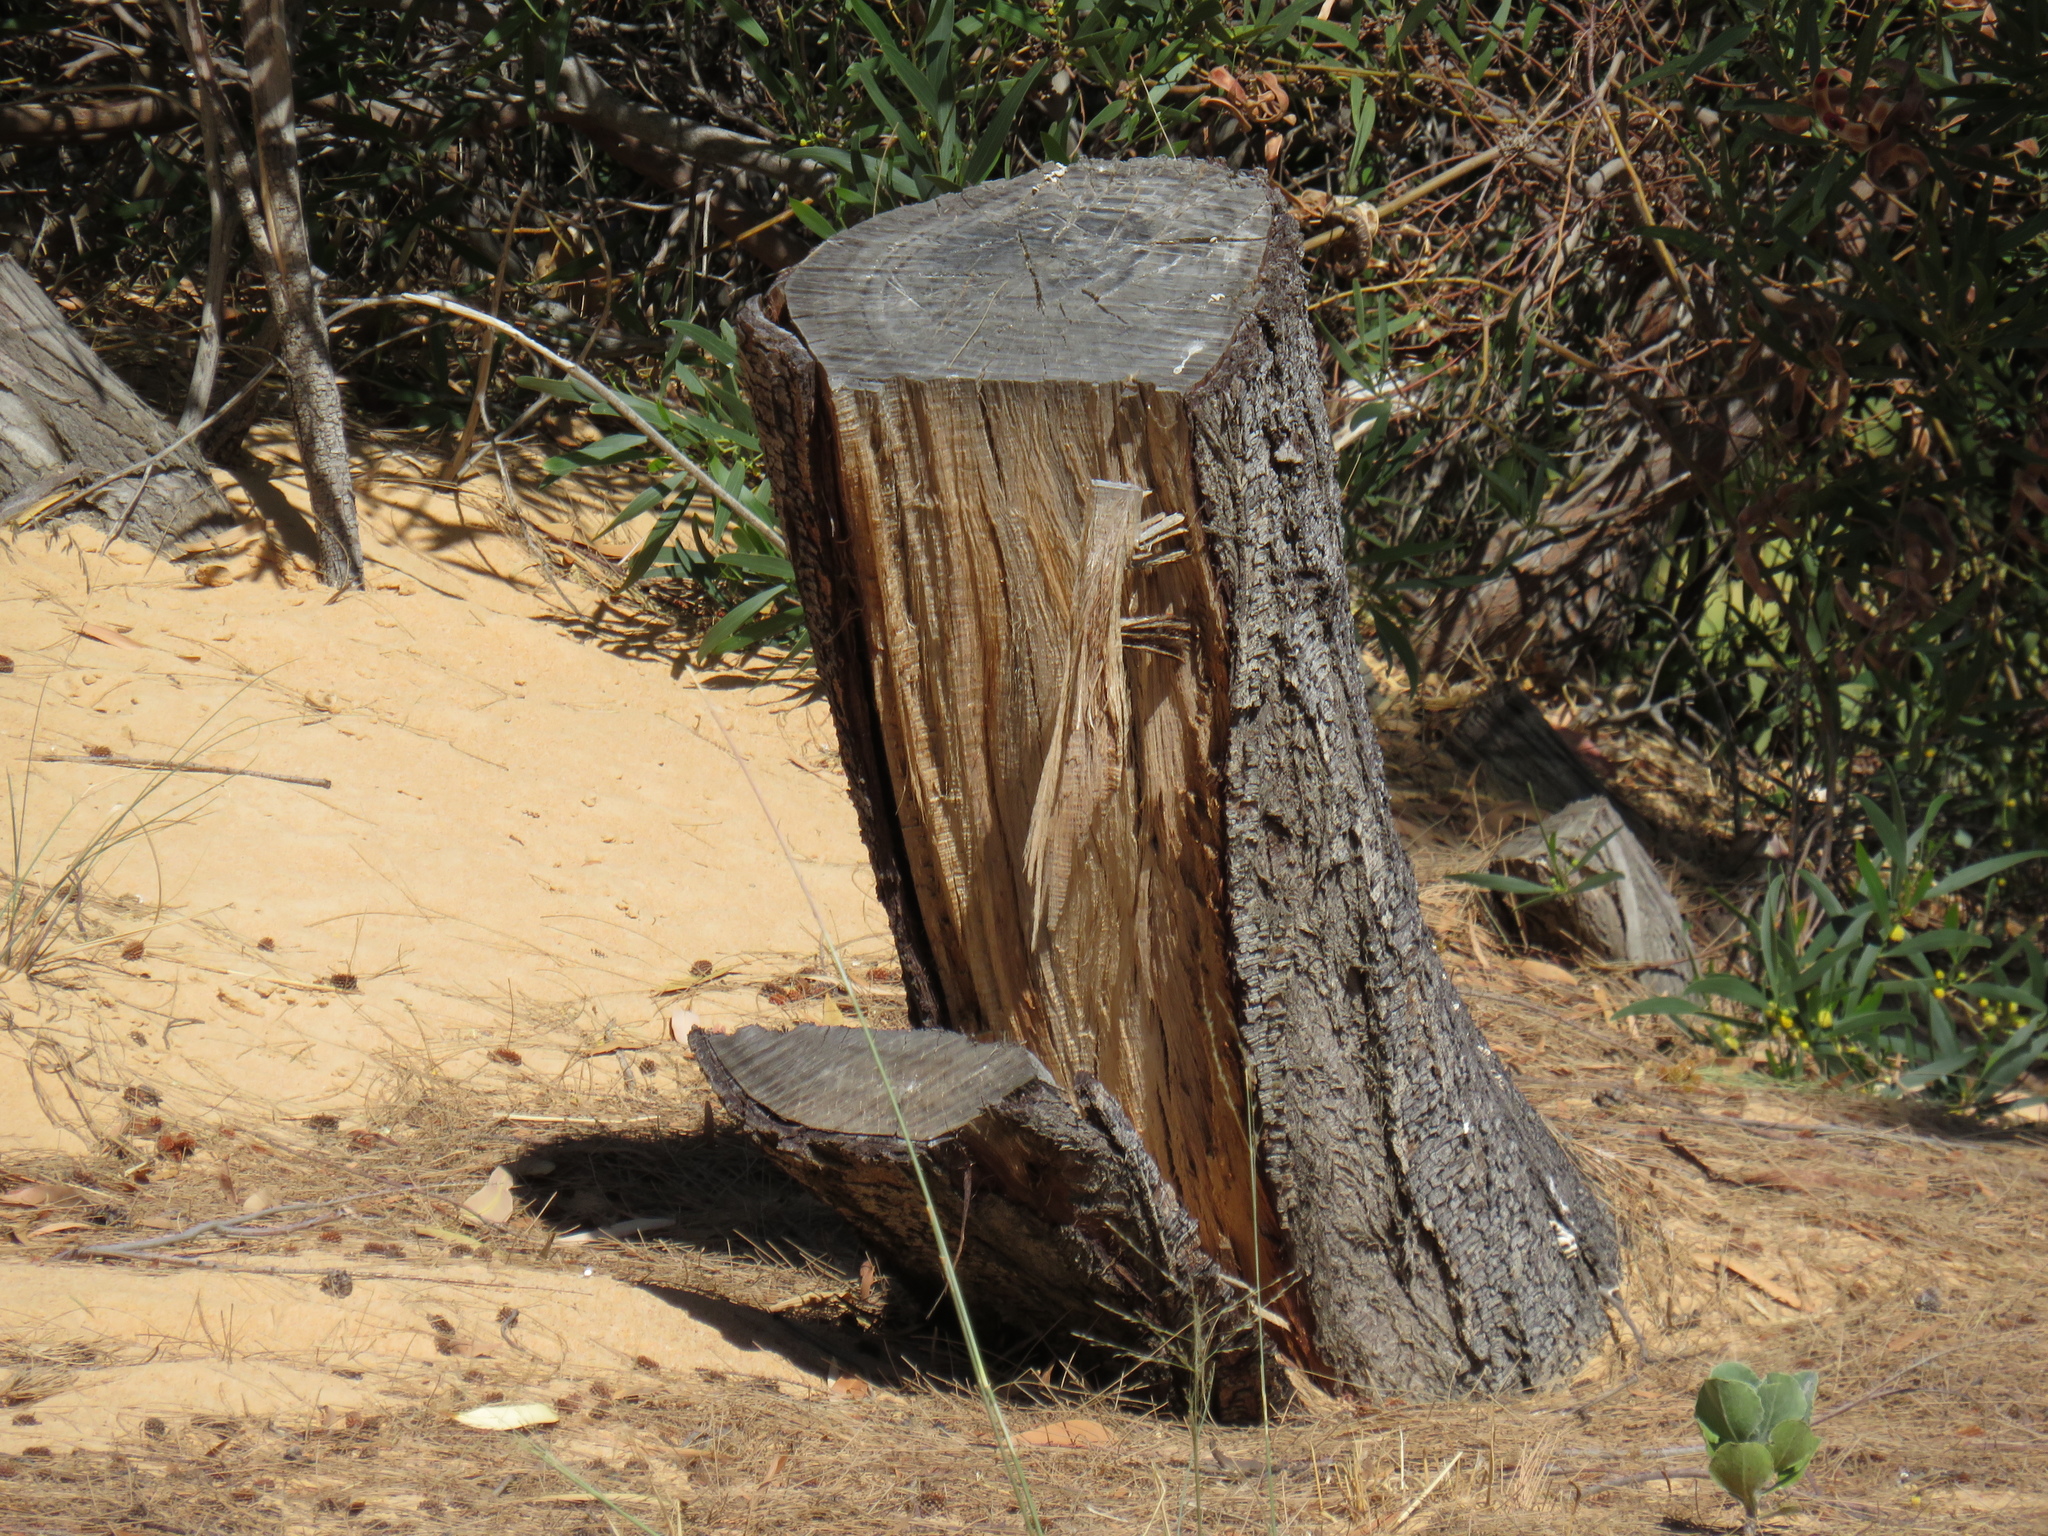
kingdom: Plantae
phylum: Tracheophyta
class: Magnoliopsida
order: Fabales
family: Fabaceae
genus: Acacia
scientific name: Acacia saligna
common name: Orange wattle
